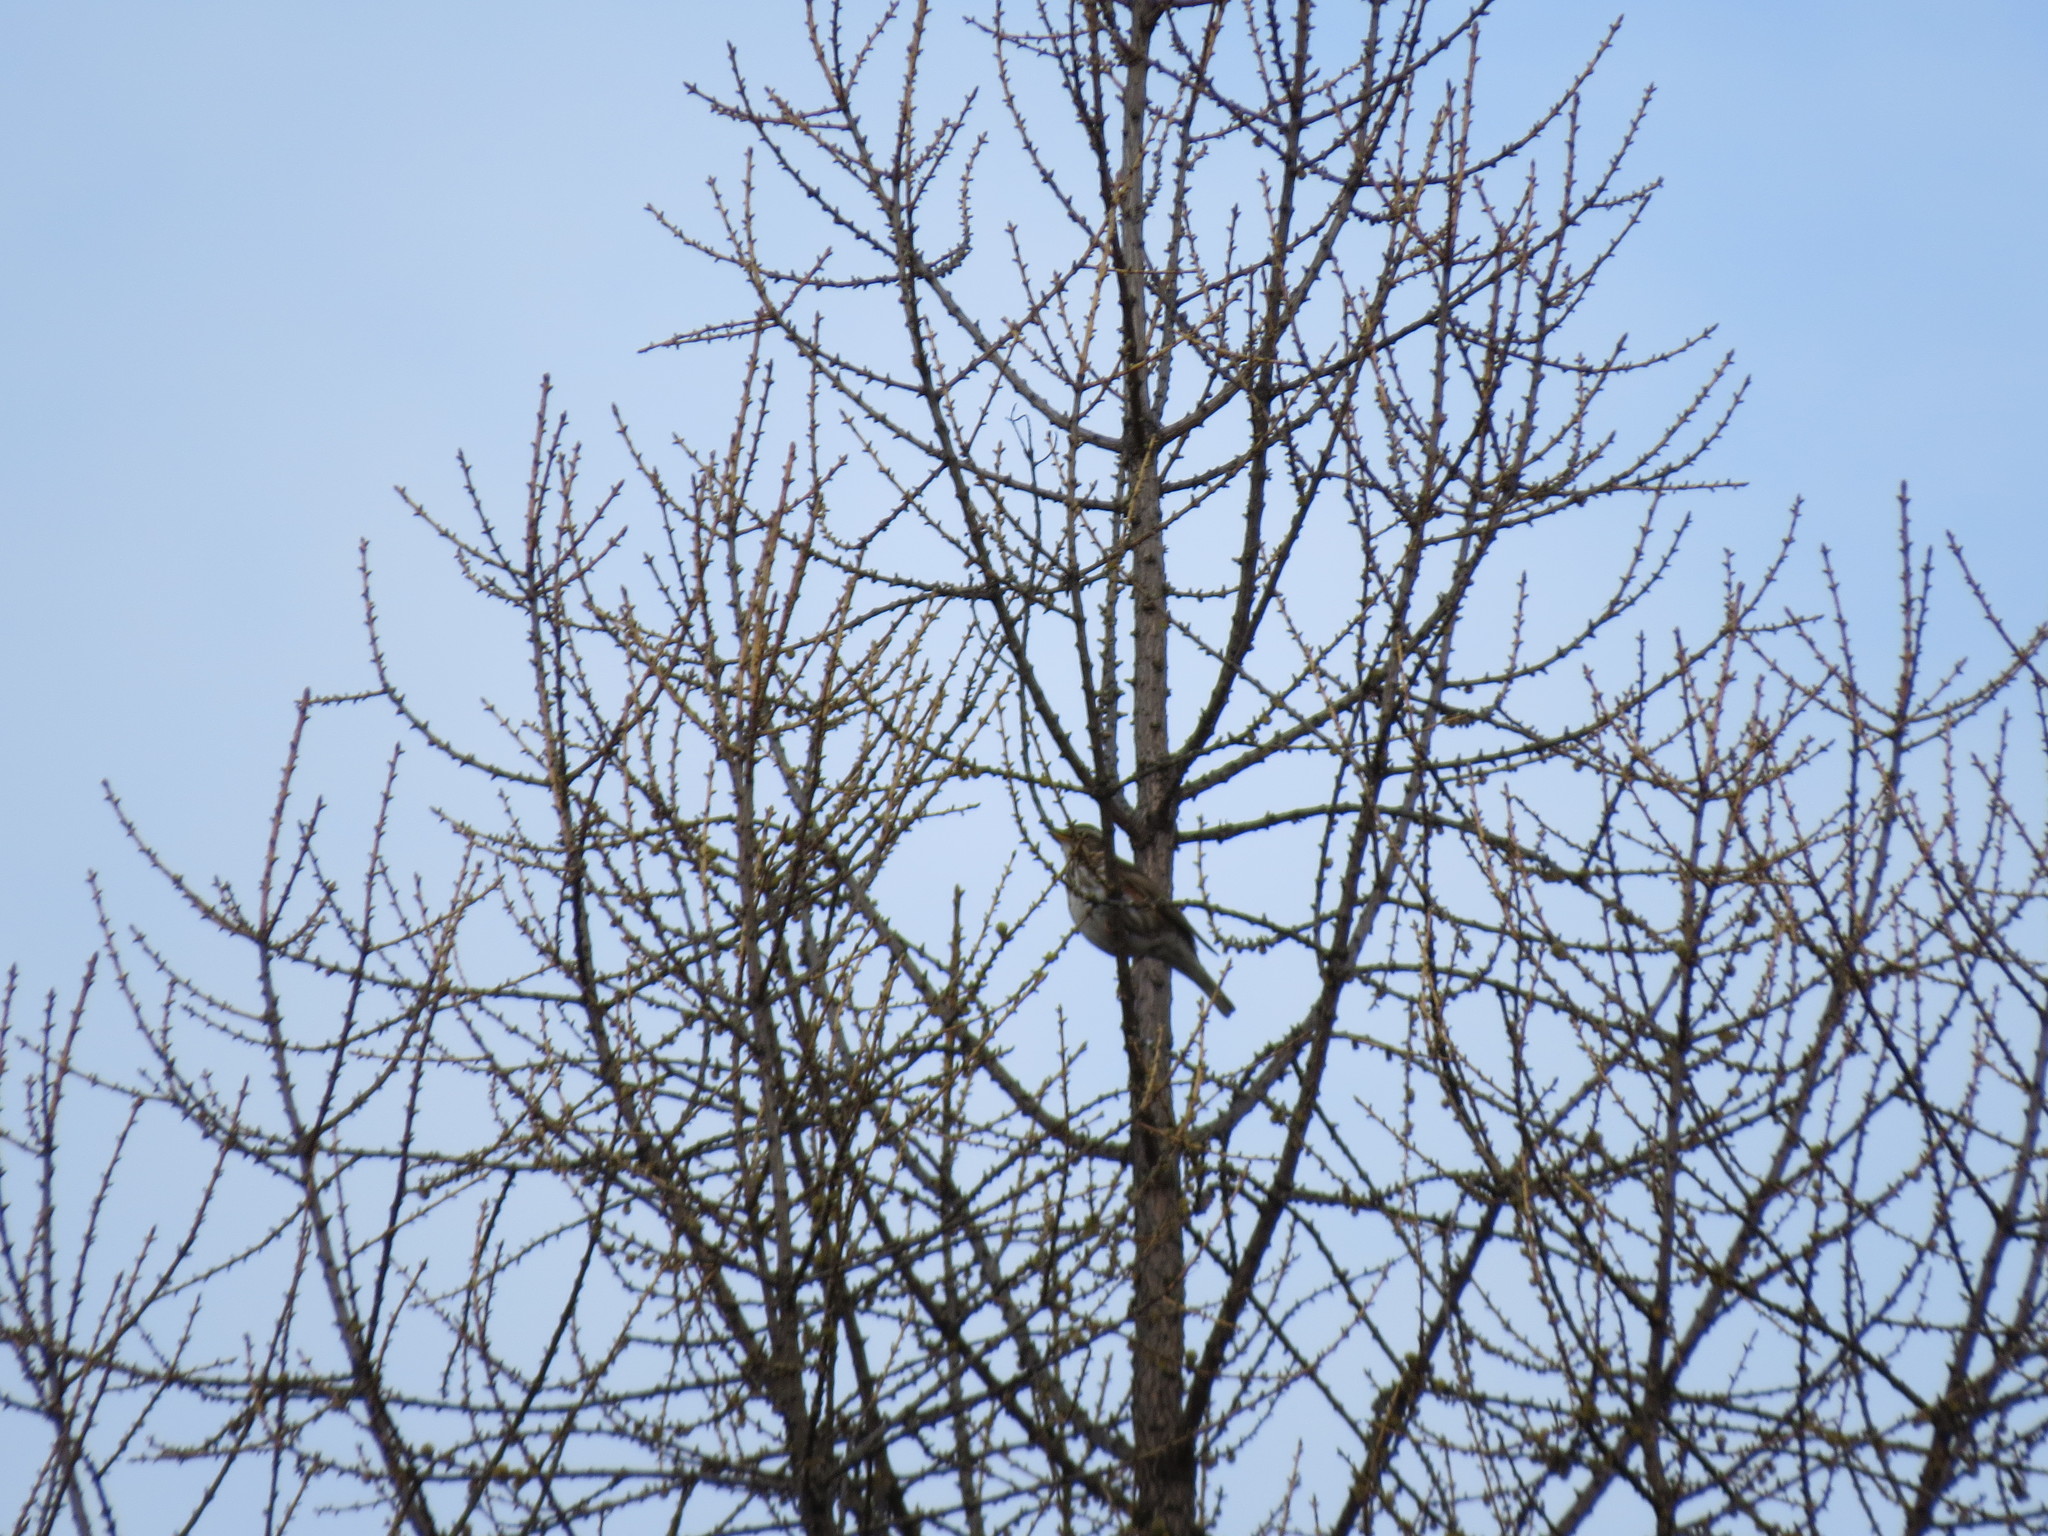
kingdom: Animalia
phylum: Chordata
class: Aves
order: Passeriformes
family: Turdidae
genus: Turdus
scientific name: Turdus iliacus
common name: Redwing
